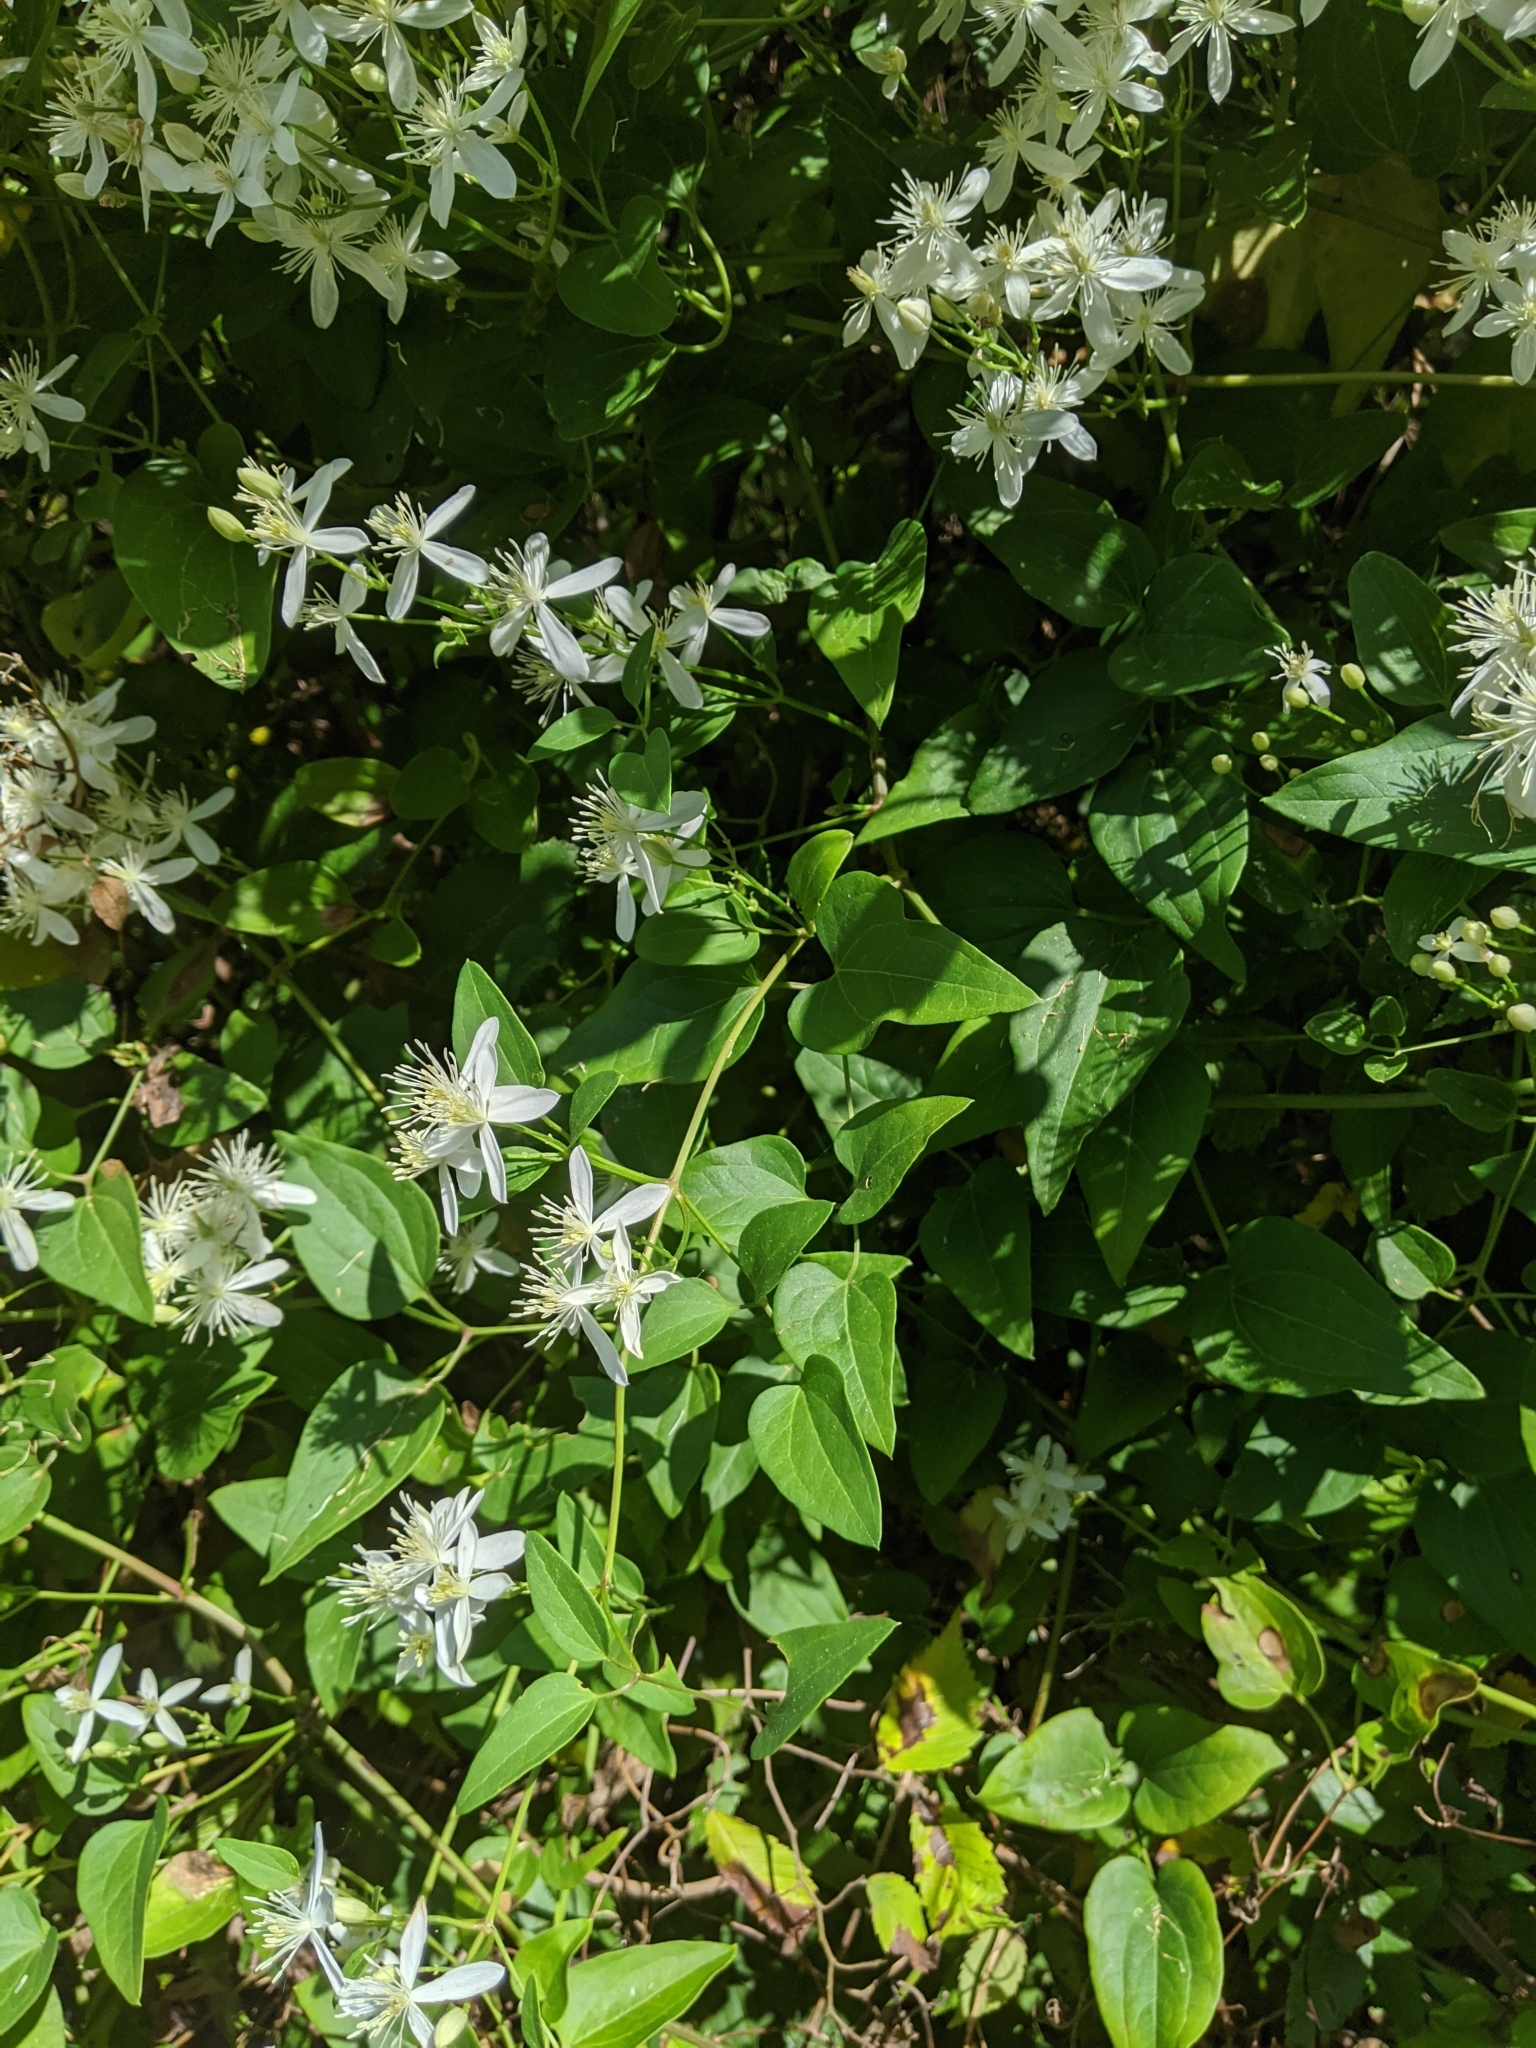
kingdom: Plantae
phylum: Tracheophyta
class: Magnoliopsida
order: Ranunculales
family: Ranunculaceae
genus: Clematis
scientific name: Clematis terniflora
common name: Sweet autumn clematis
